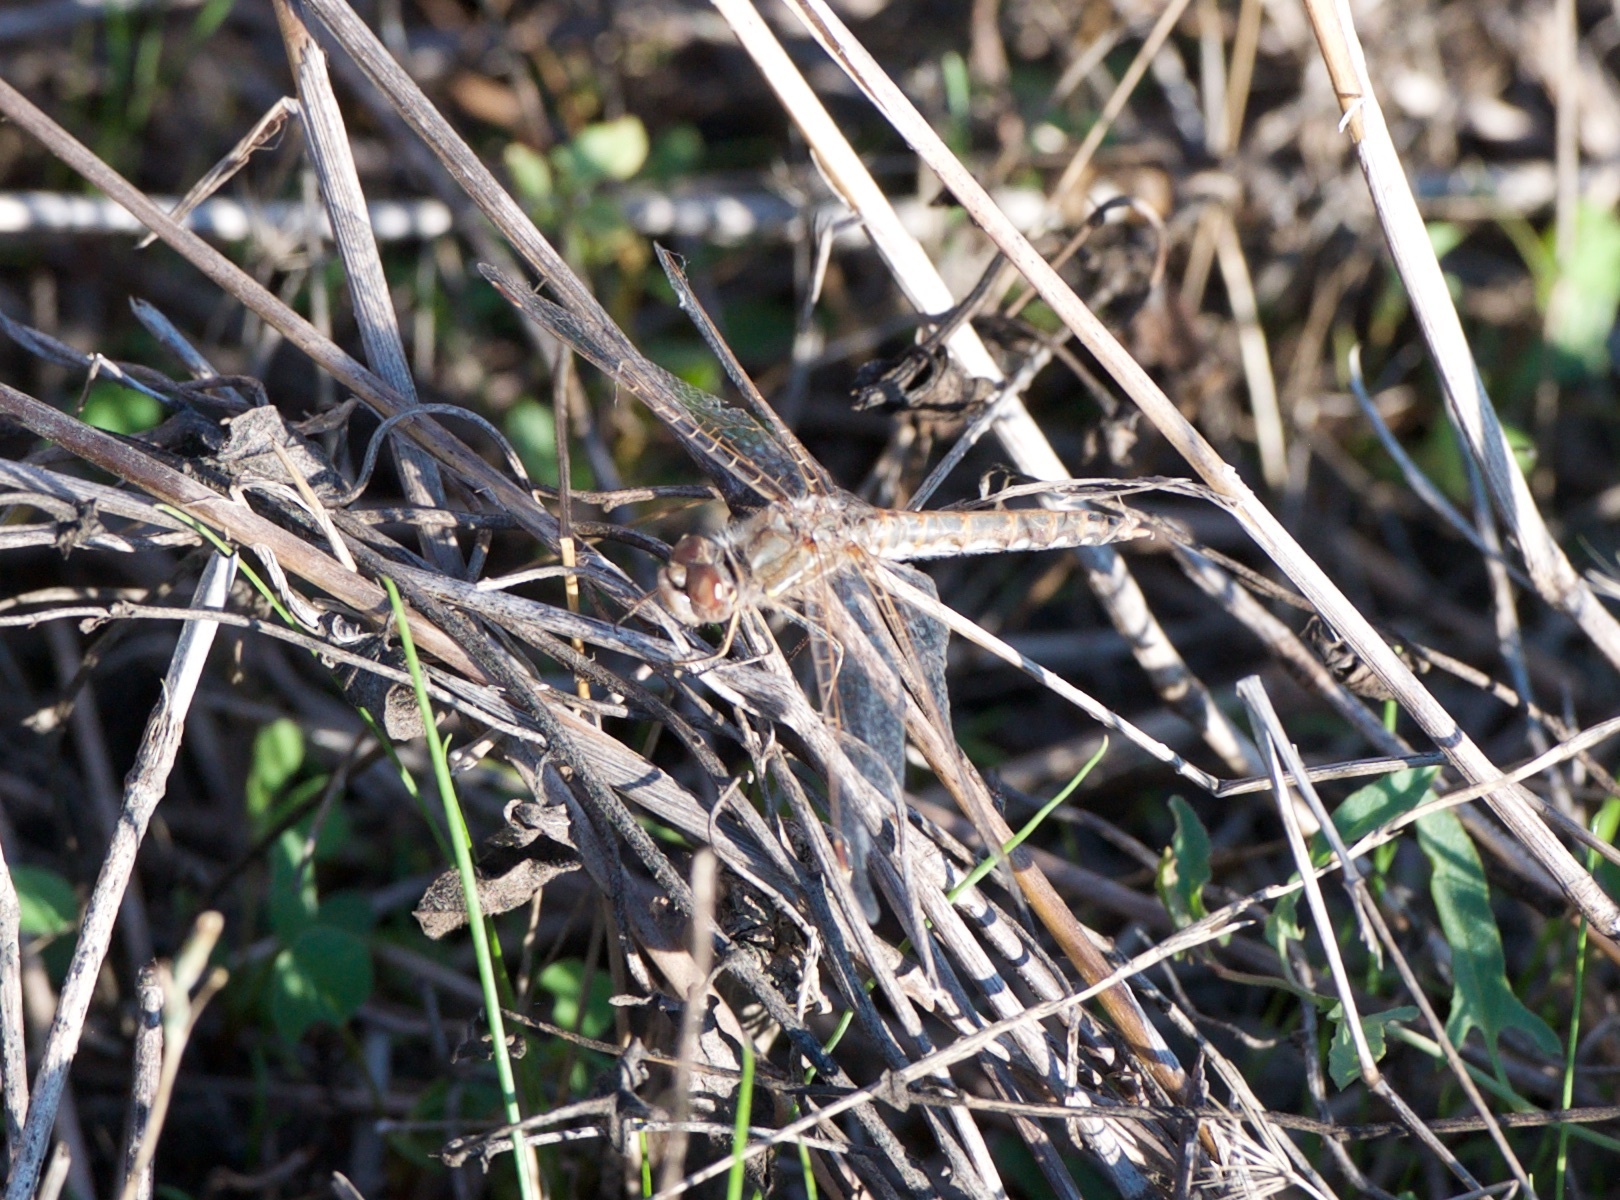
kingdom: Animalia
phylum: Arthropoda
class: Insecta
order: Odonata
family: Libellulidae
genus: Sympetrum
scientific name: Sympetrum corruptum
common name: Variegated meadowhawk
